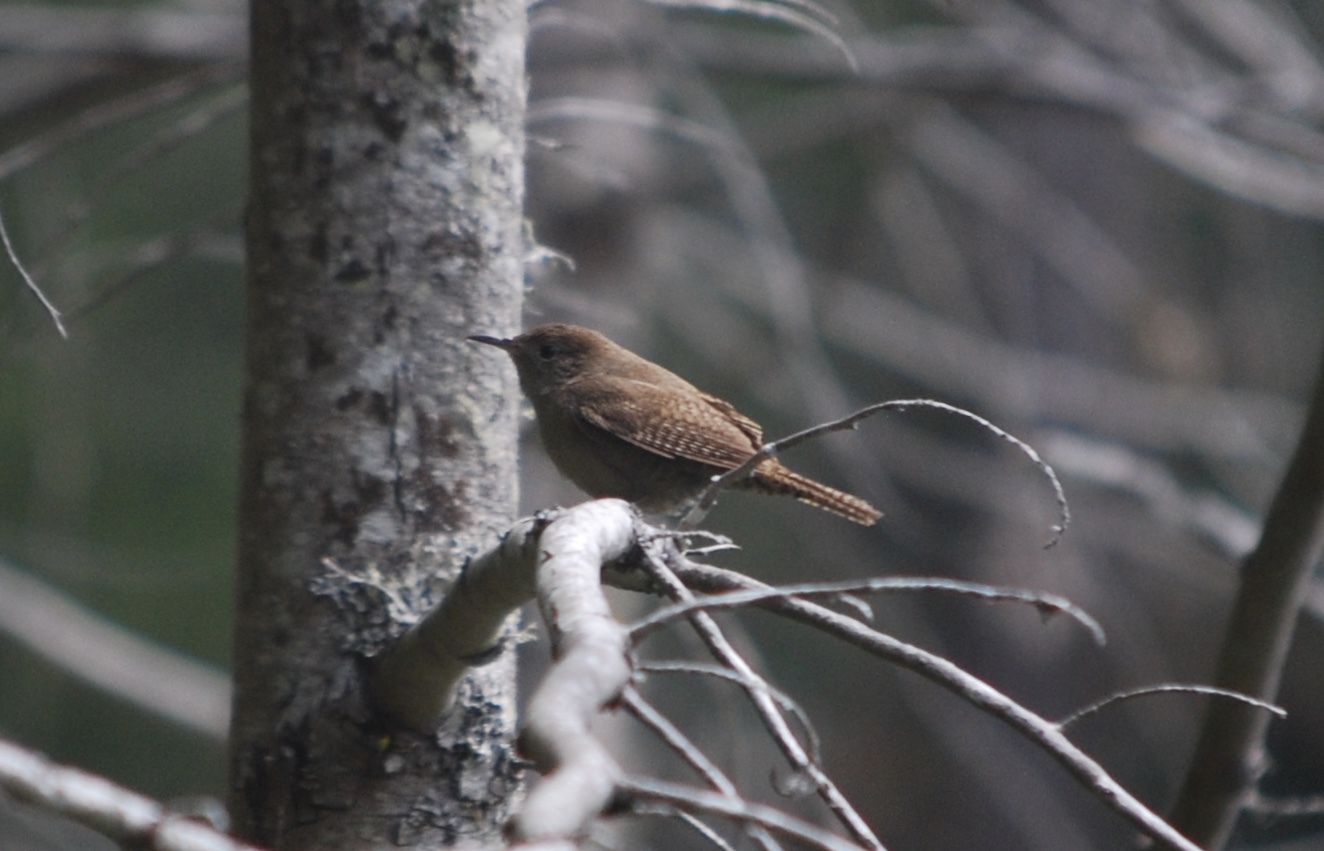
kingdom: Animalia
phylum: Chordata
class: Aves
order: Passeriformes
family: Troglodytidae
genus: Troglodytes
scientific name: Troglodytes aedon
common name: House wren
